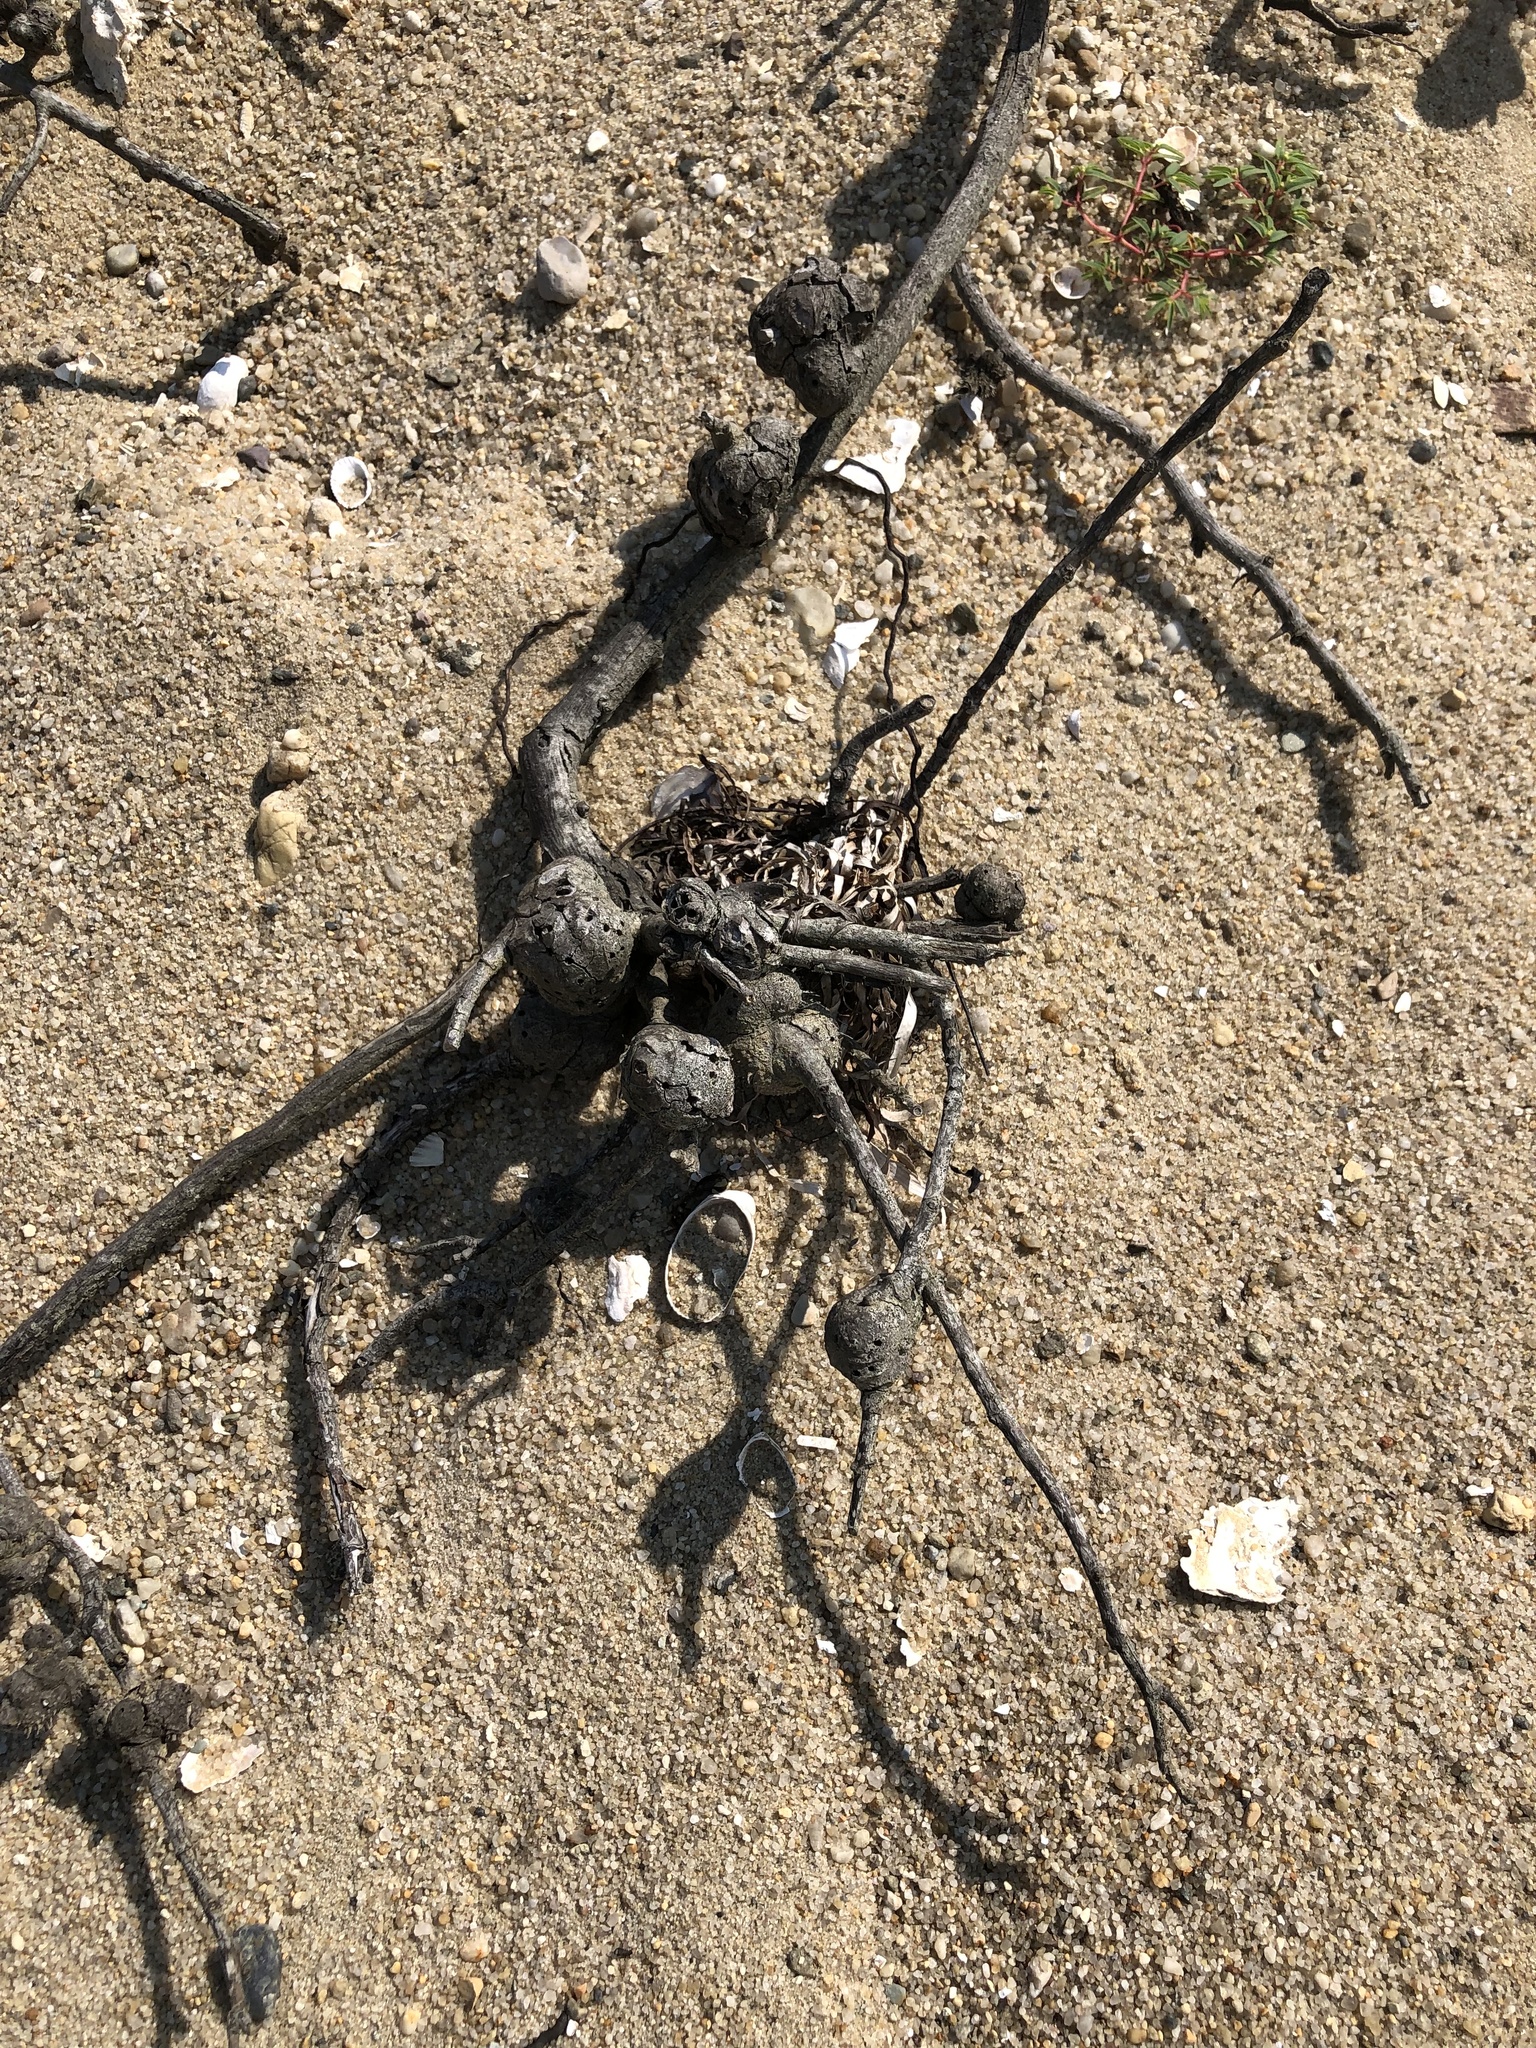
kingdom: Animalia
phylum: Arthropoda
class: Insecta
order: Hymenoptera
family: Cynipidae
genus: Diplolepis
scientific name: Diplolepis spinosa
